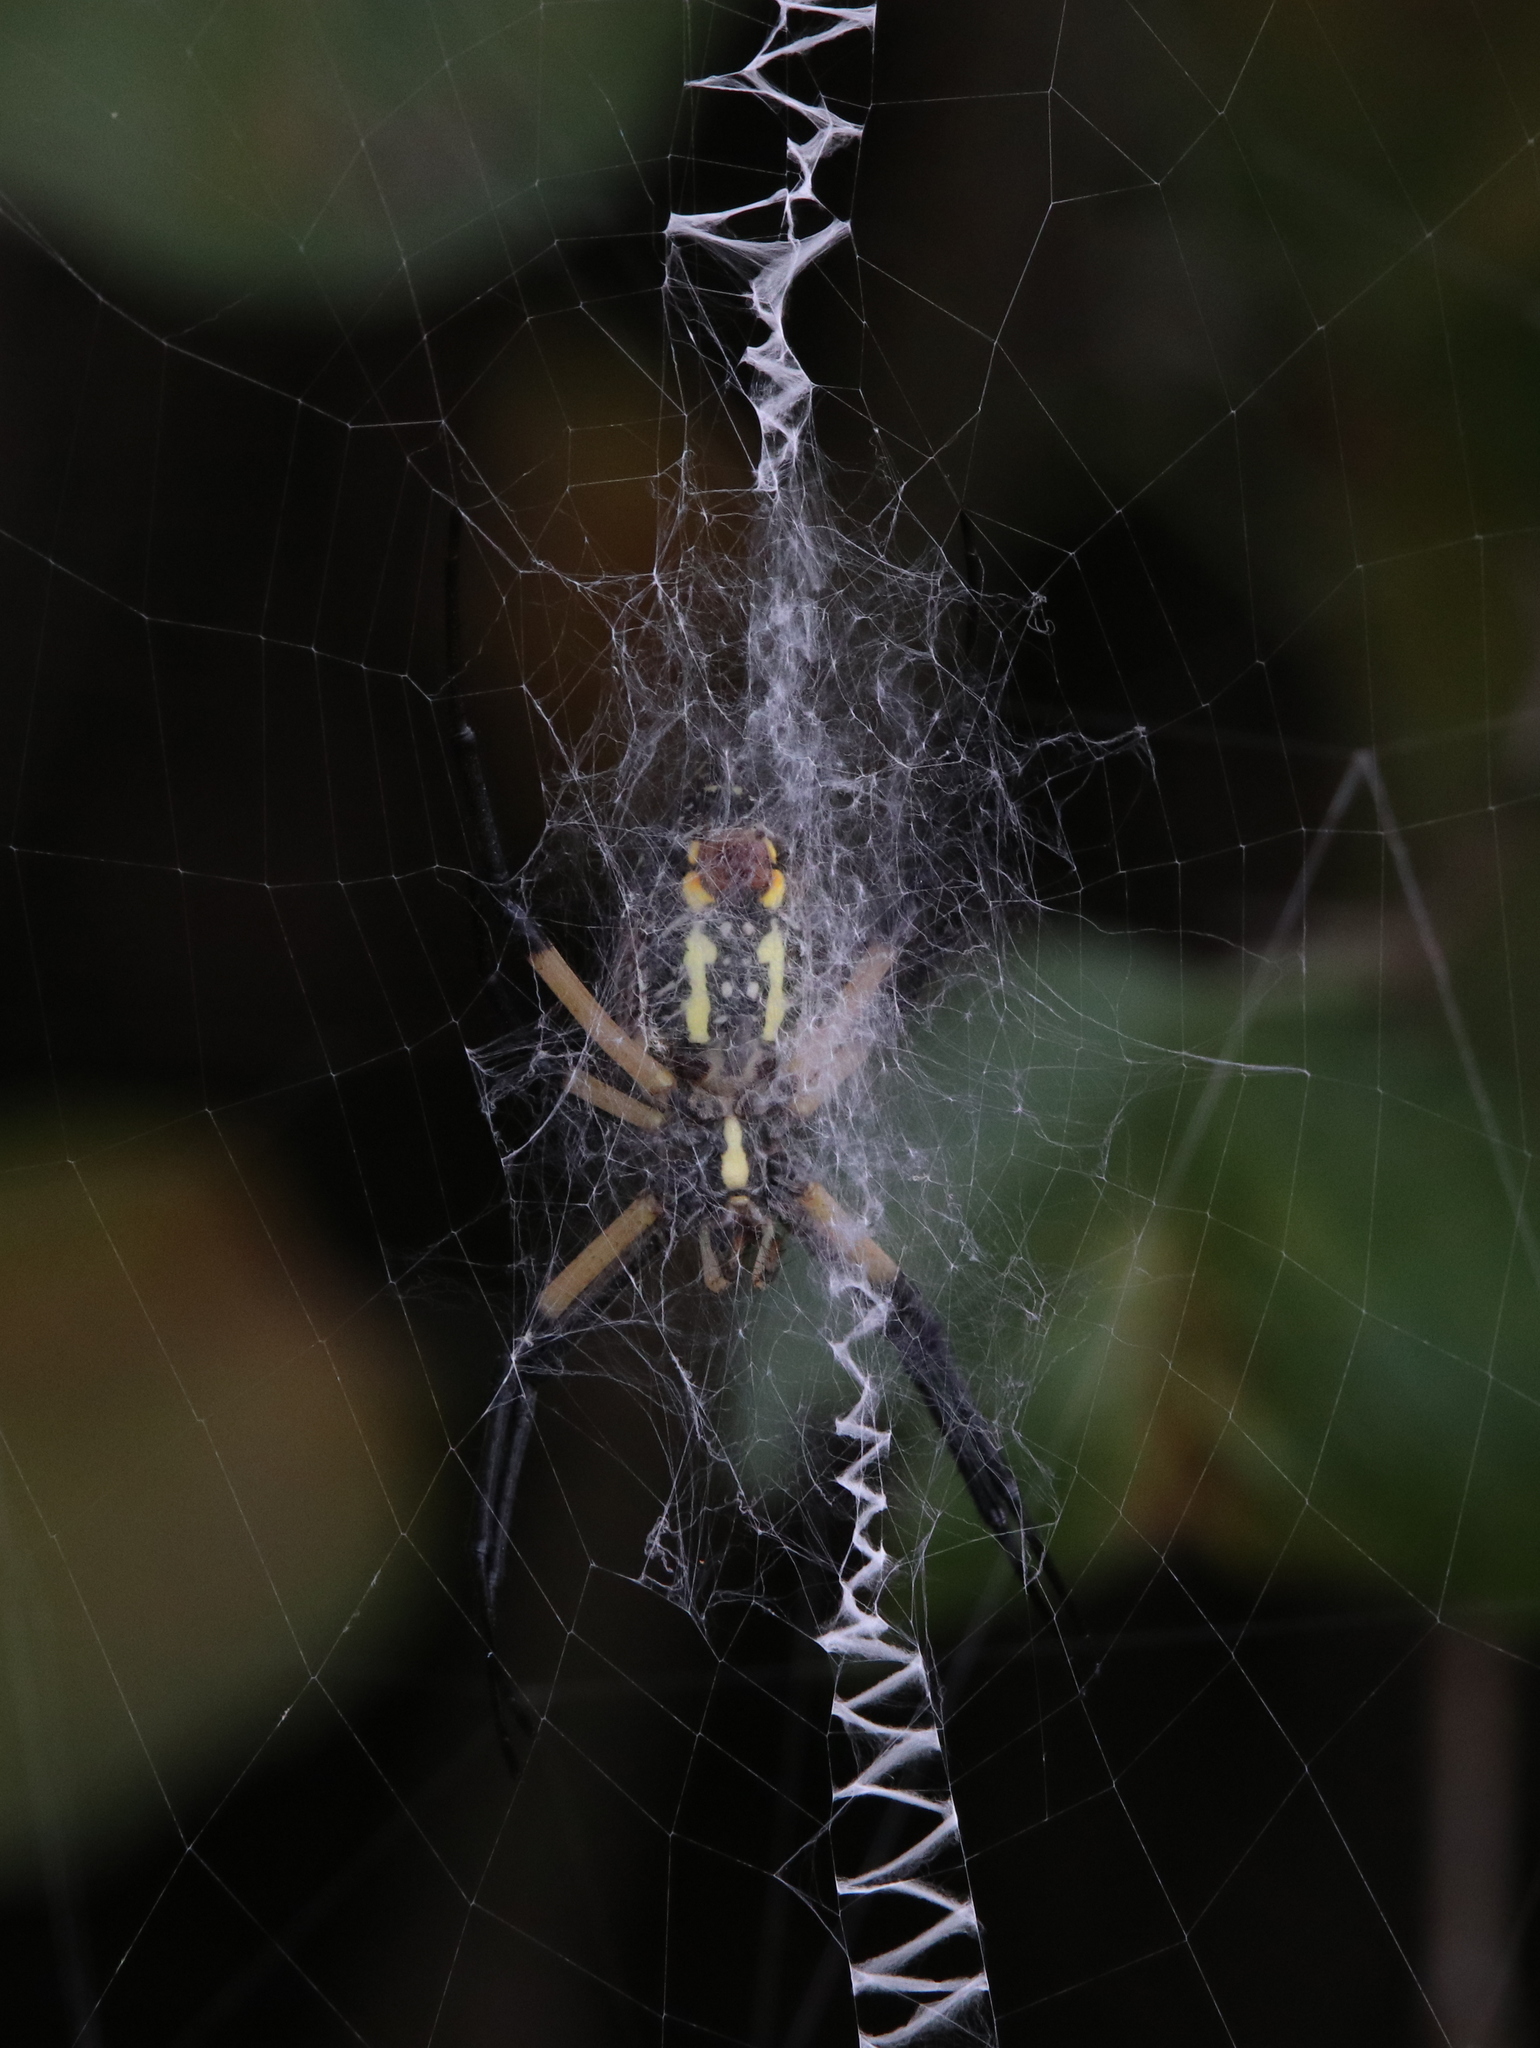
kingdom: Animalia
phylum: Arthropoda
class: Arachnida
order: Araneae
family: Araneidae
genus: Argiope
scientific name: Argiope aurantia
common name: Orb weavers
